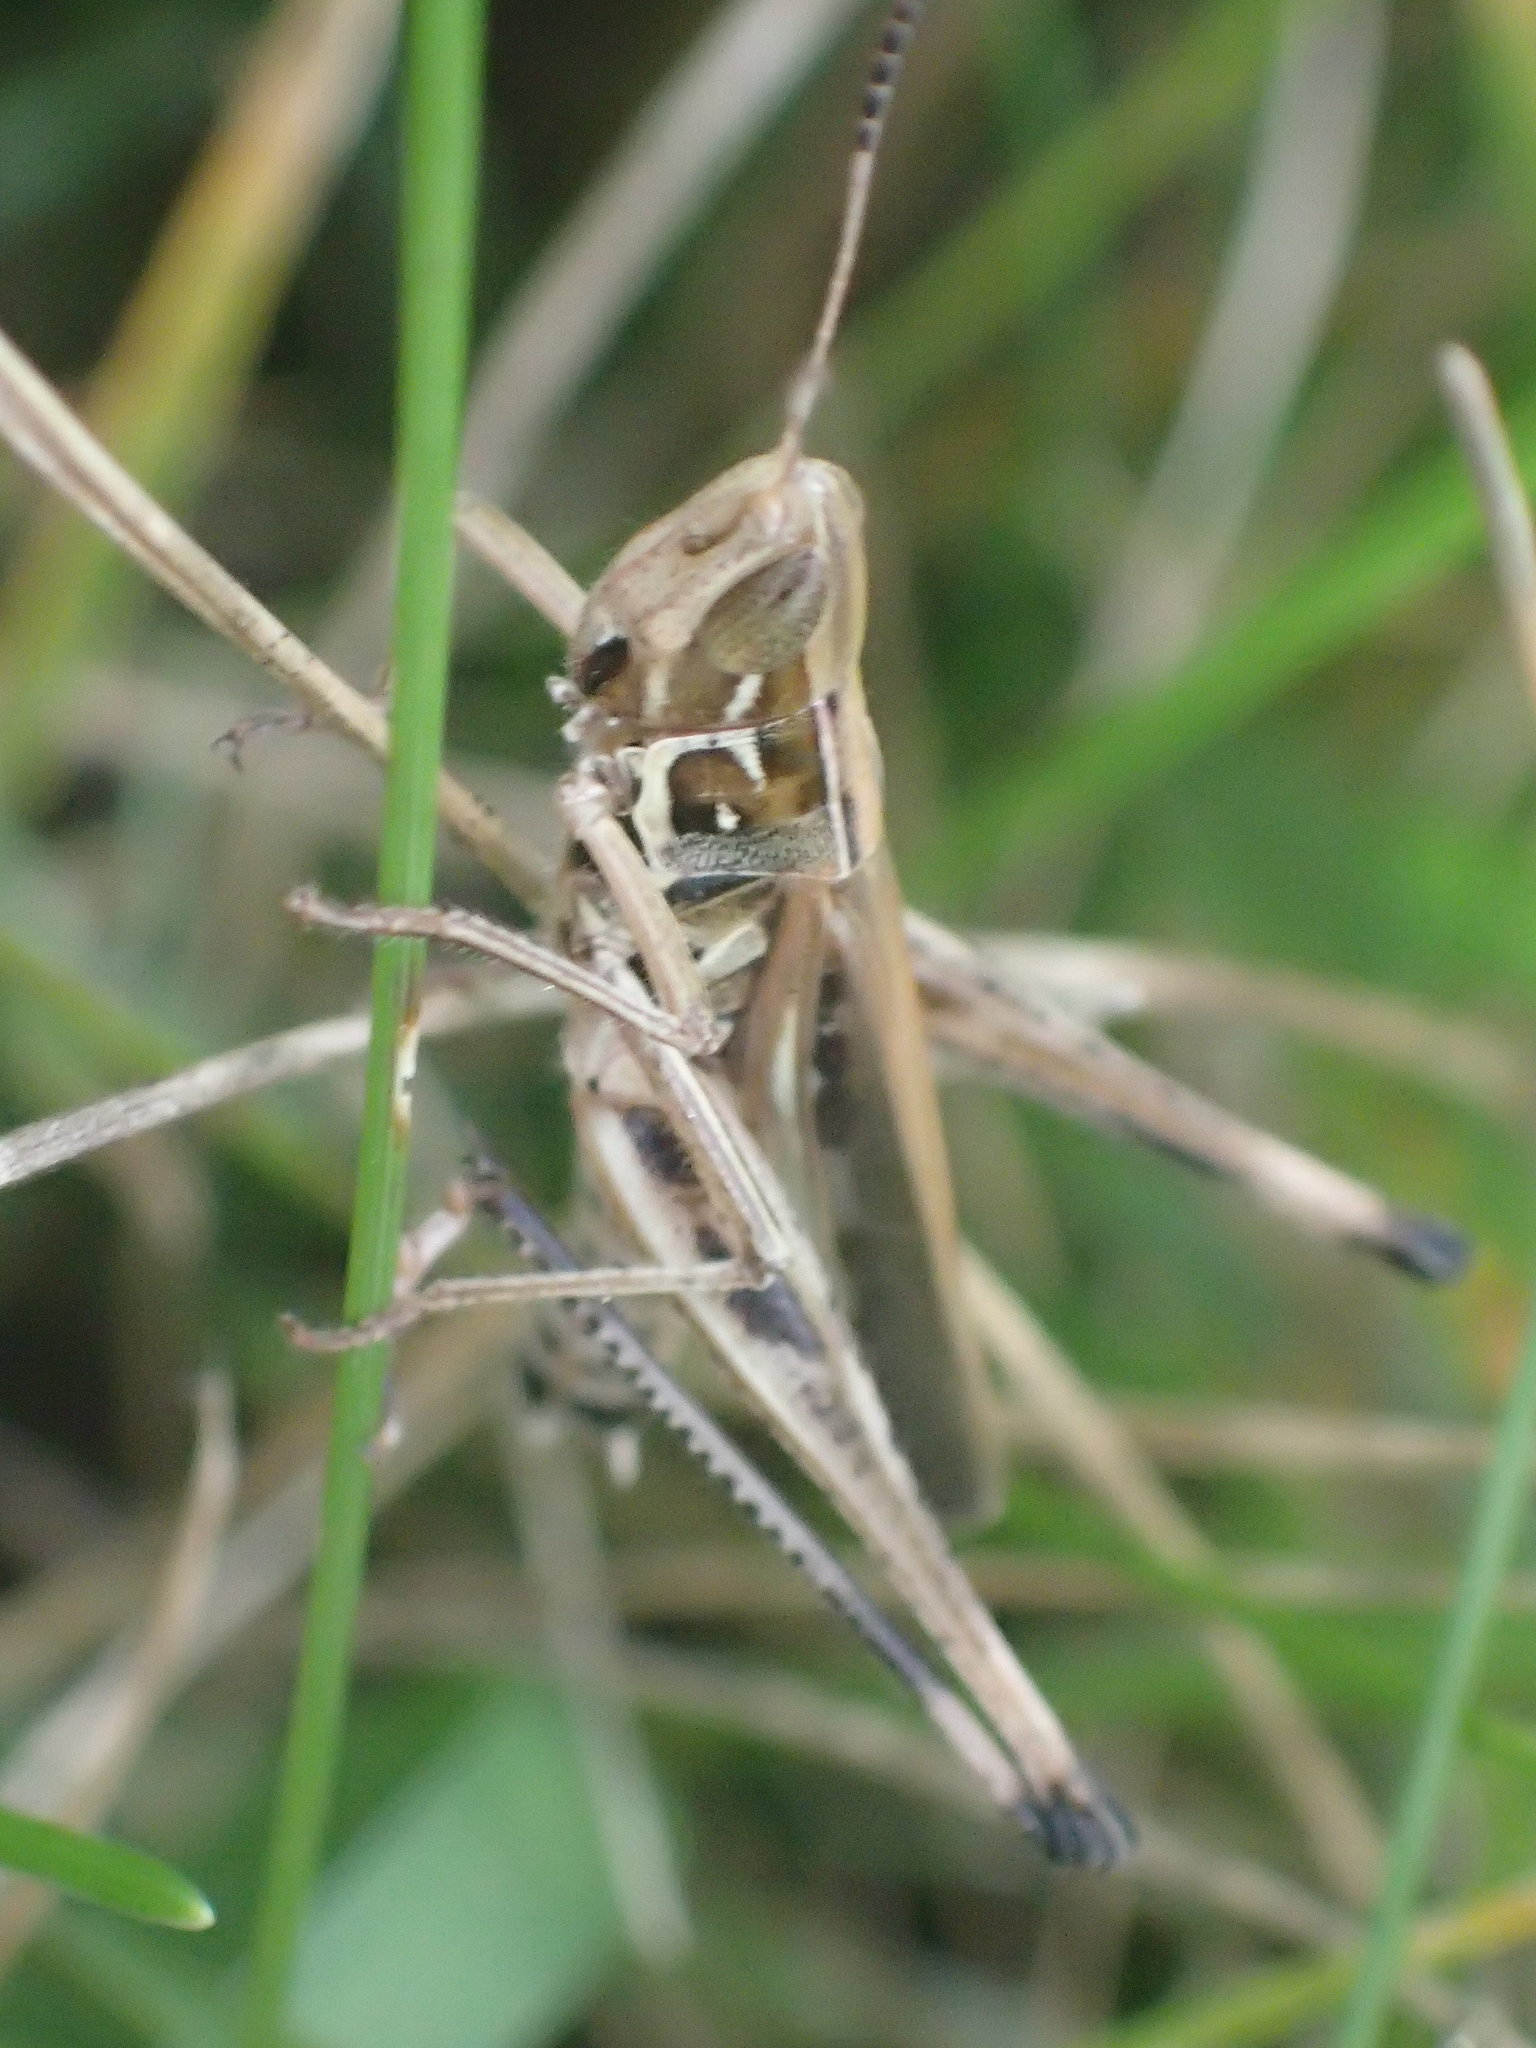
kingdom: Animalia
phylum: Arthropoda
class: Insecta
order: Orthoptera
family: Acrididae
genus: Syrbula
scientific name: Syrbula admirabilis
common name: Handsome grasshopper
